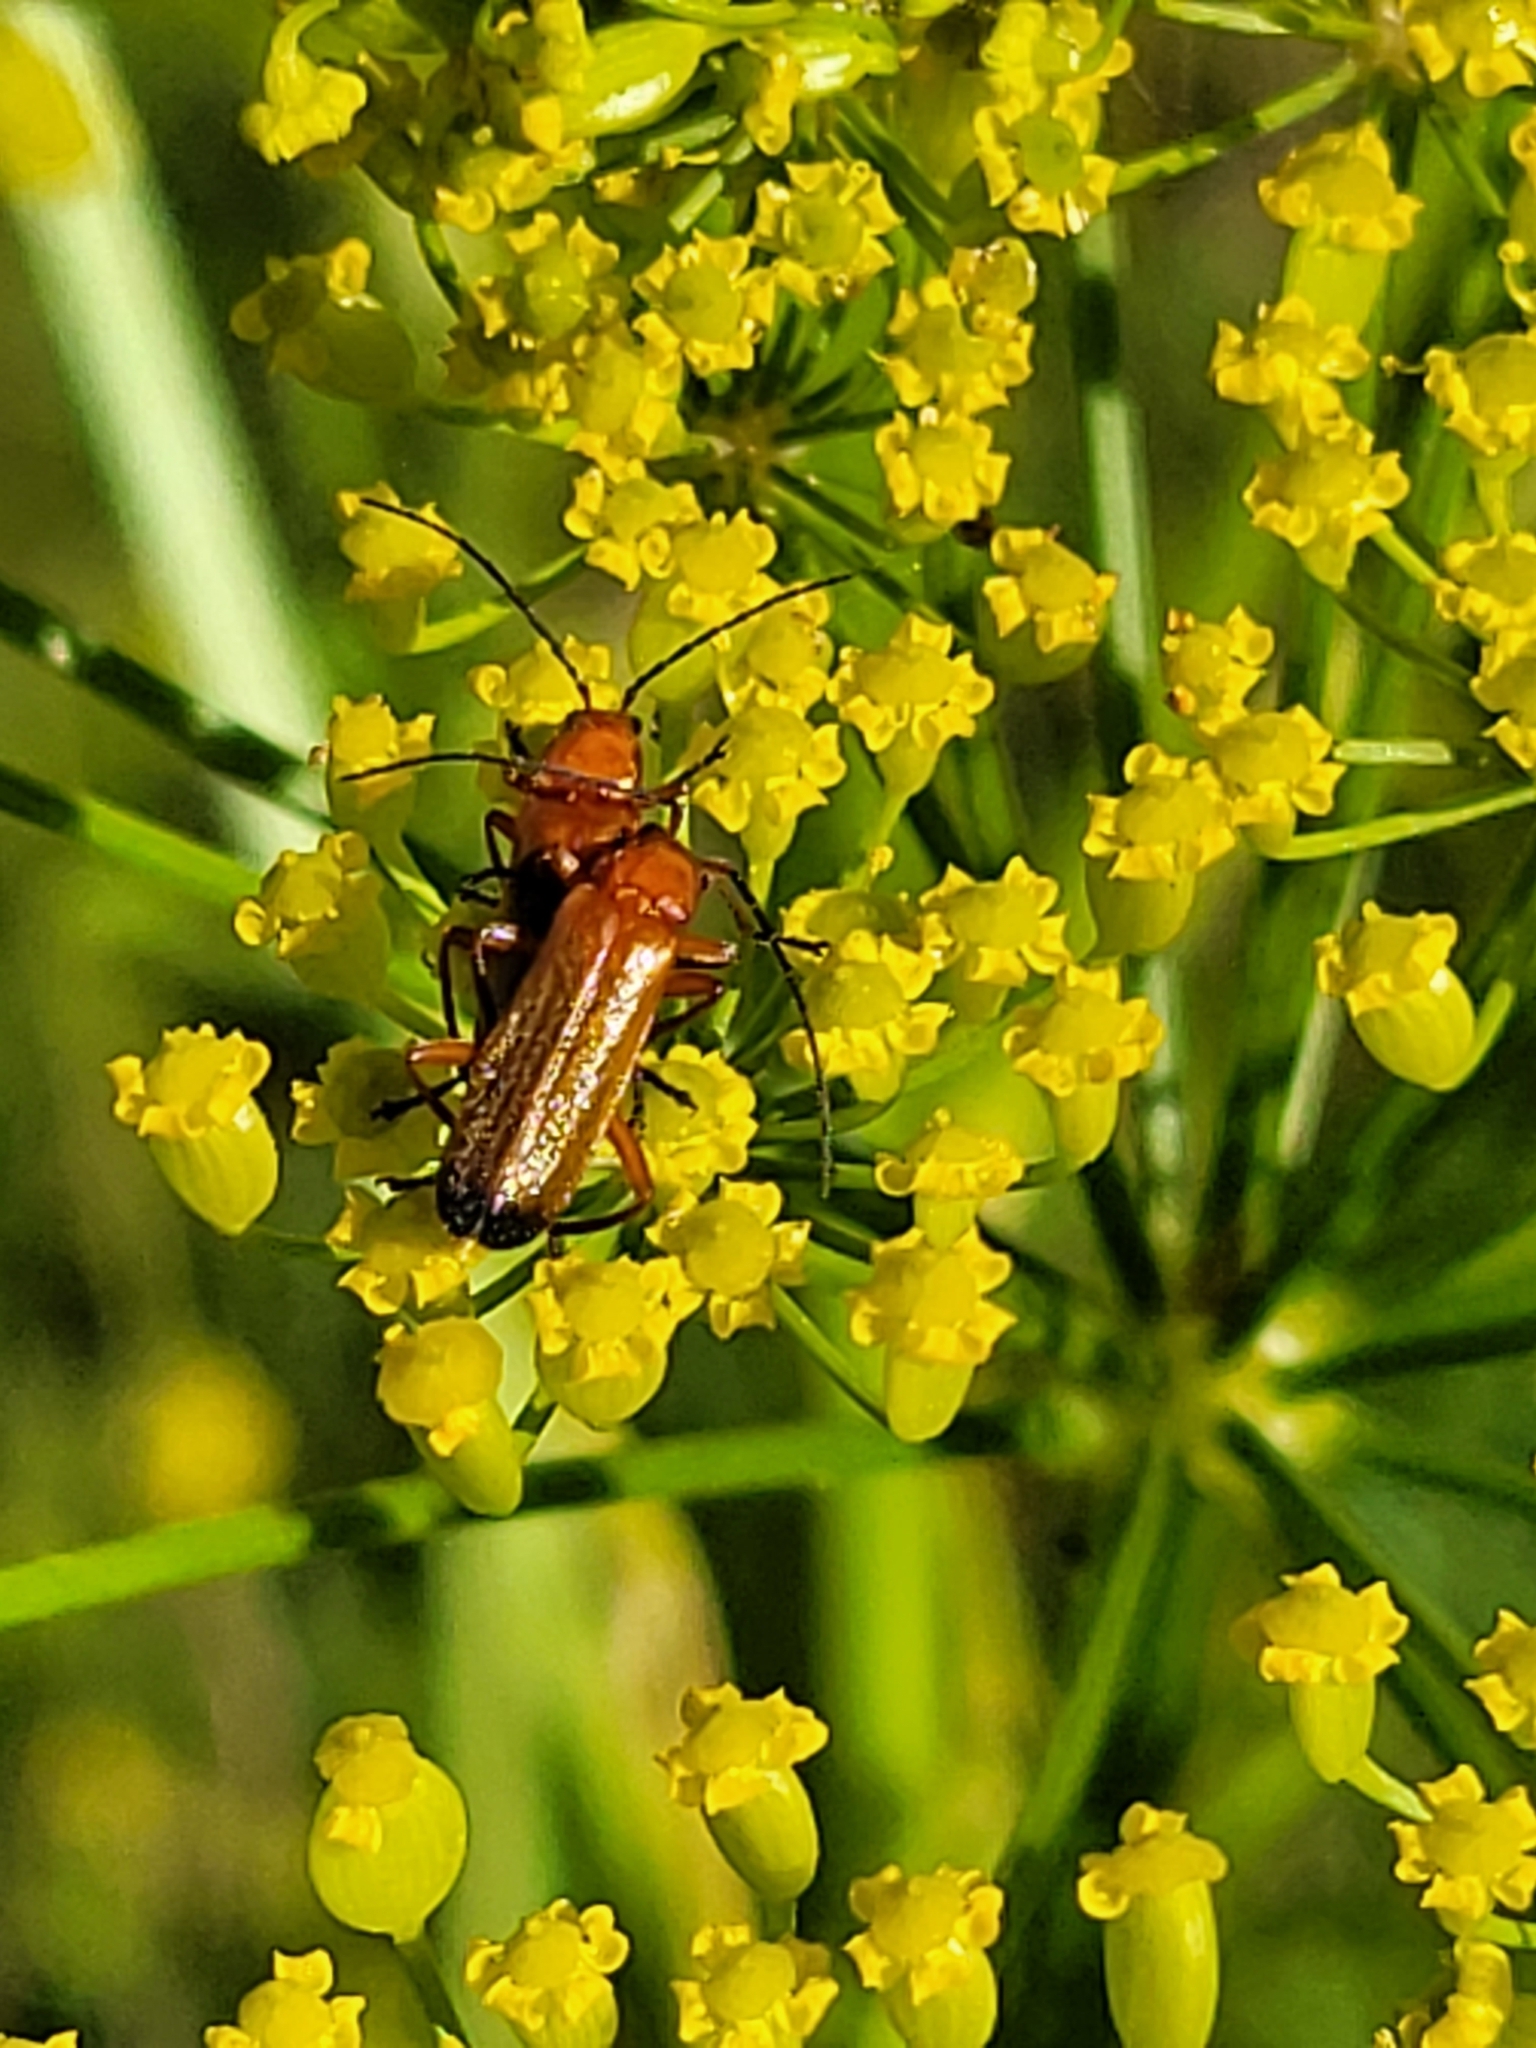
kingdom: Animalia
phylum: Arthropoda
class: Insecta
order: Coleoptera
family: Cantharidae
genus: Rhagonycha
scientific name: Rhagonycha fulva
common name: Common red soldier beetle
